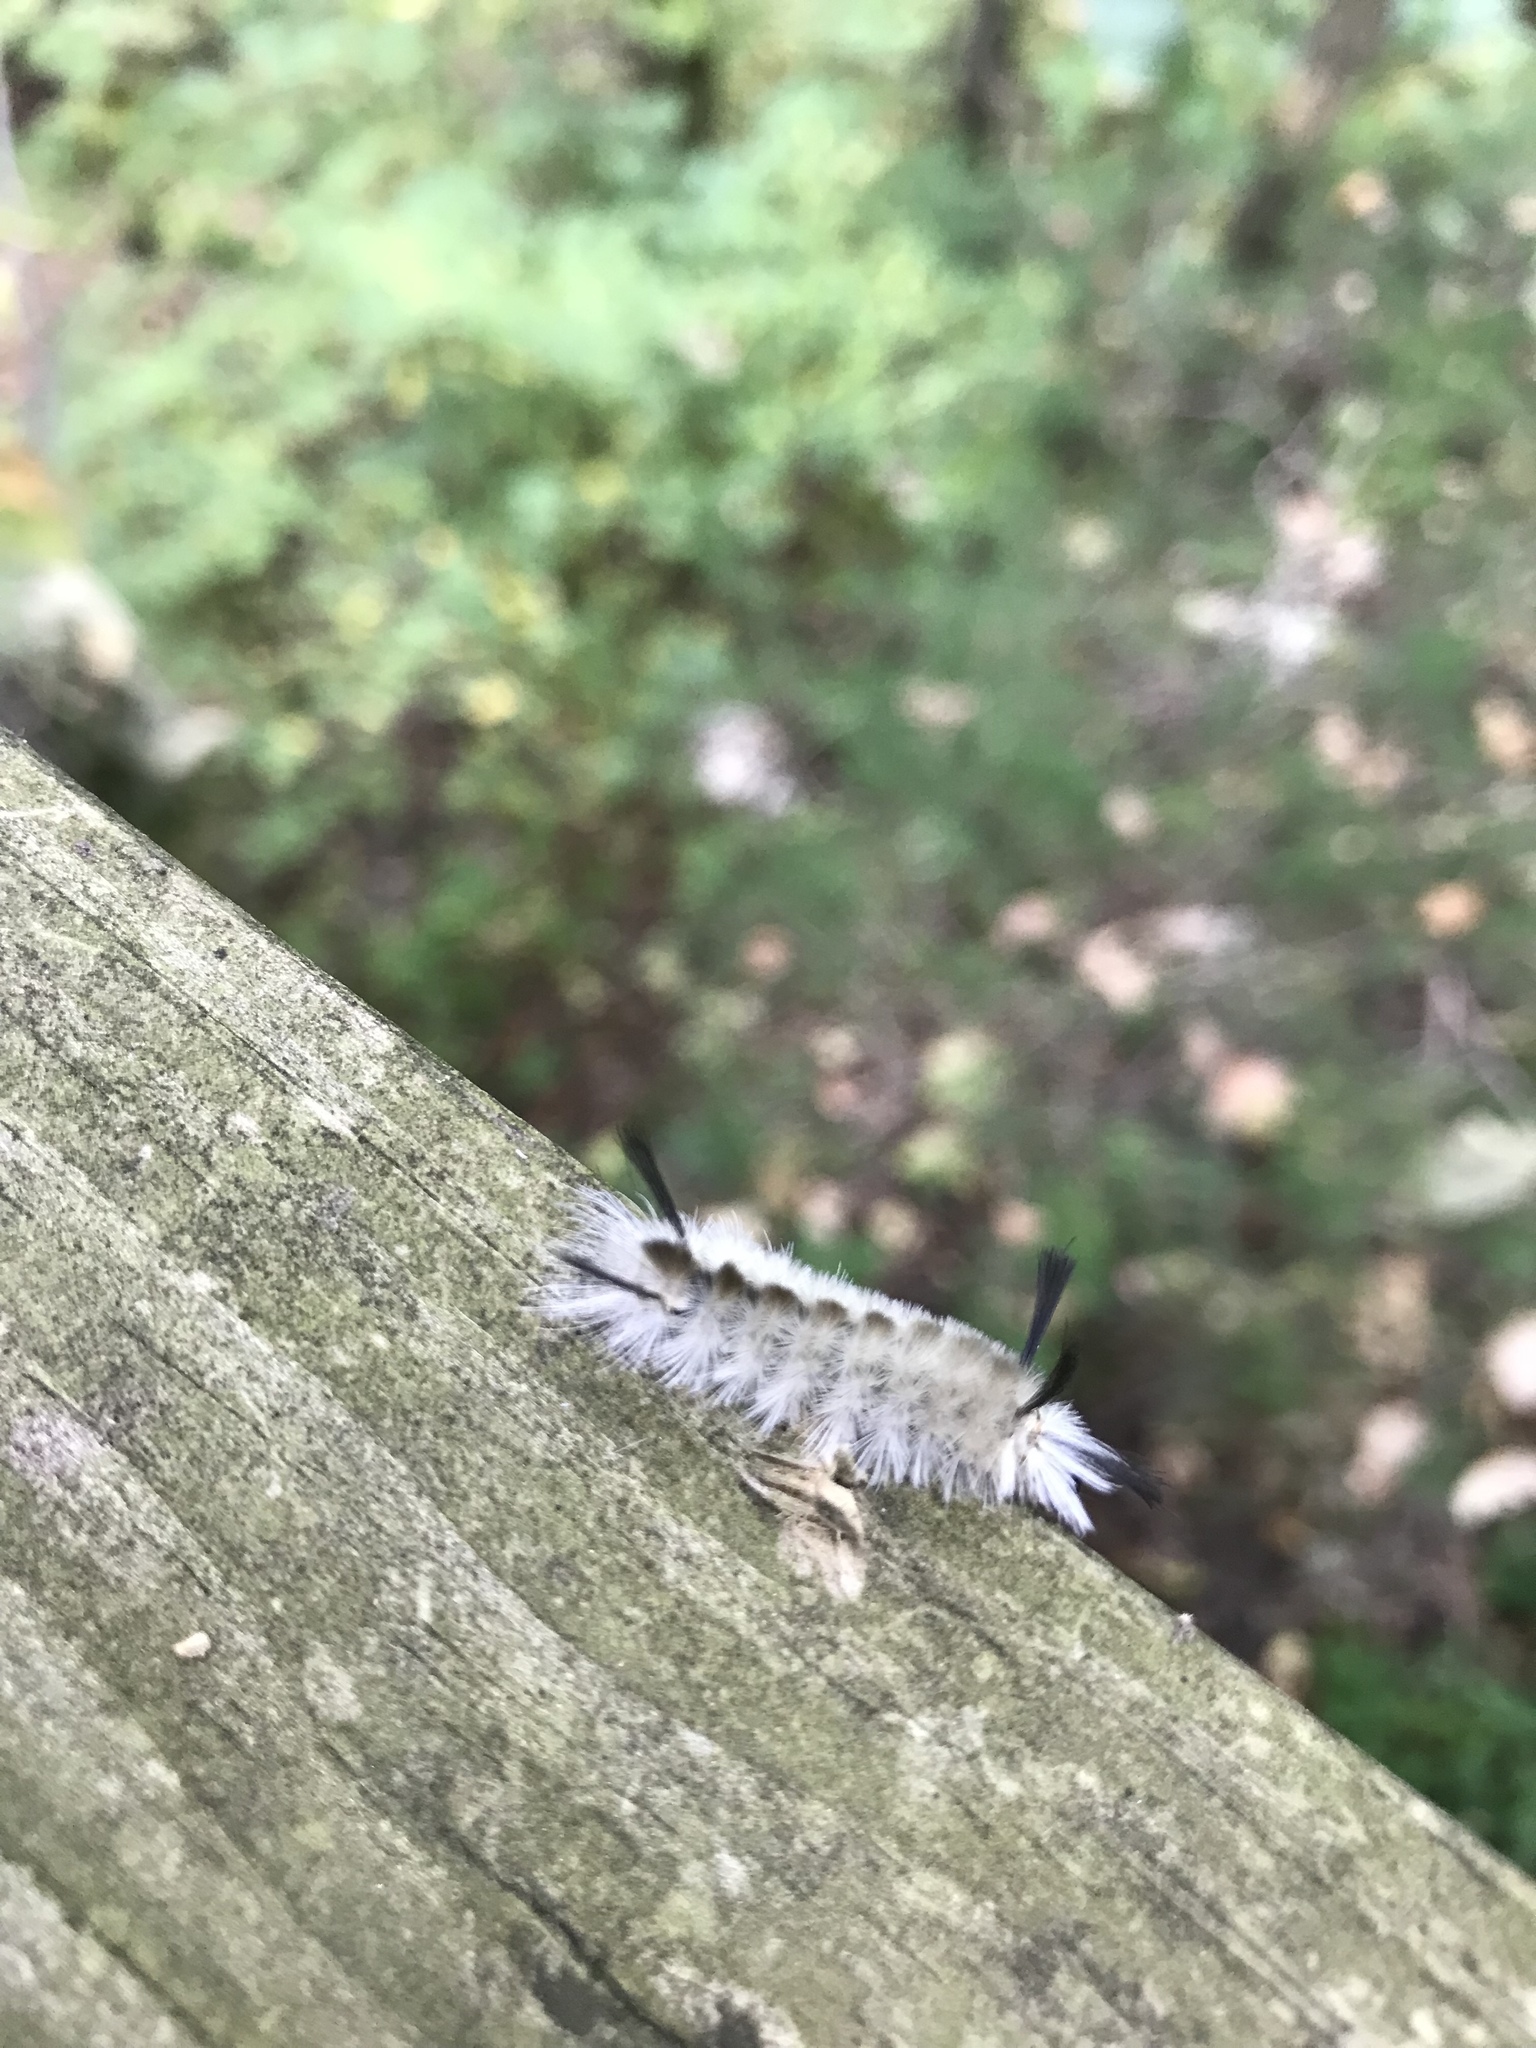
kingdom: Animalia
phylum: Arthropoda
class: Insecta
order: Lepidoptera
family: Erebidae
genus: Halysidota
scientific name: Halysidota tessellaris
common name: Banded tussock moth
